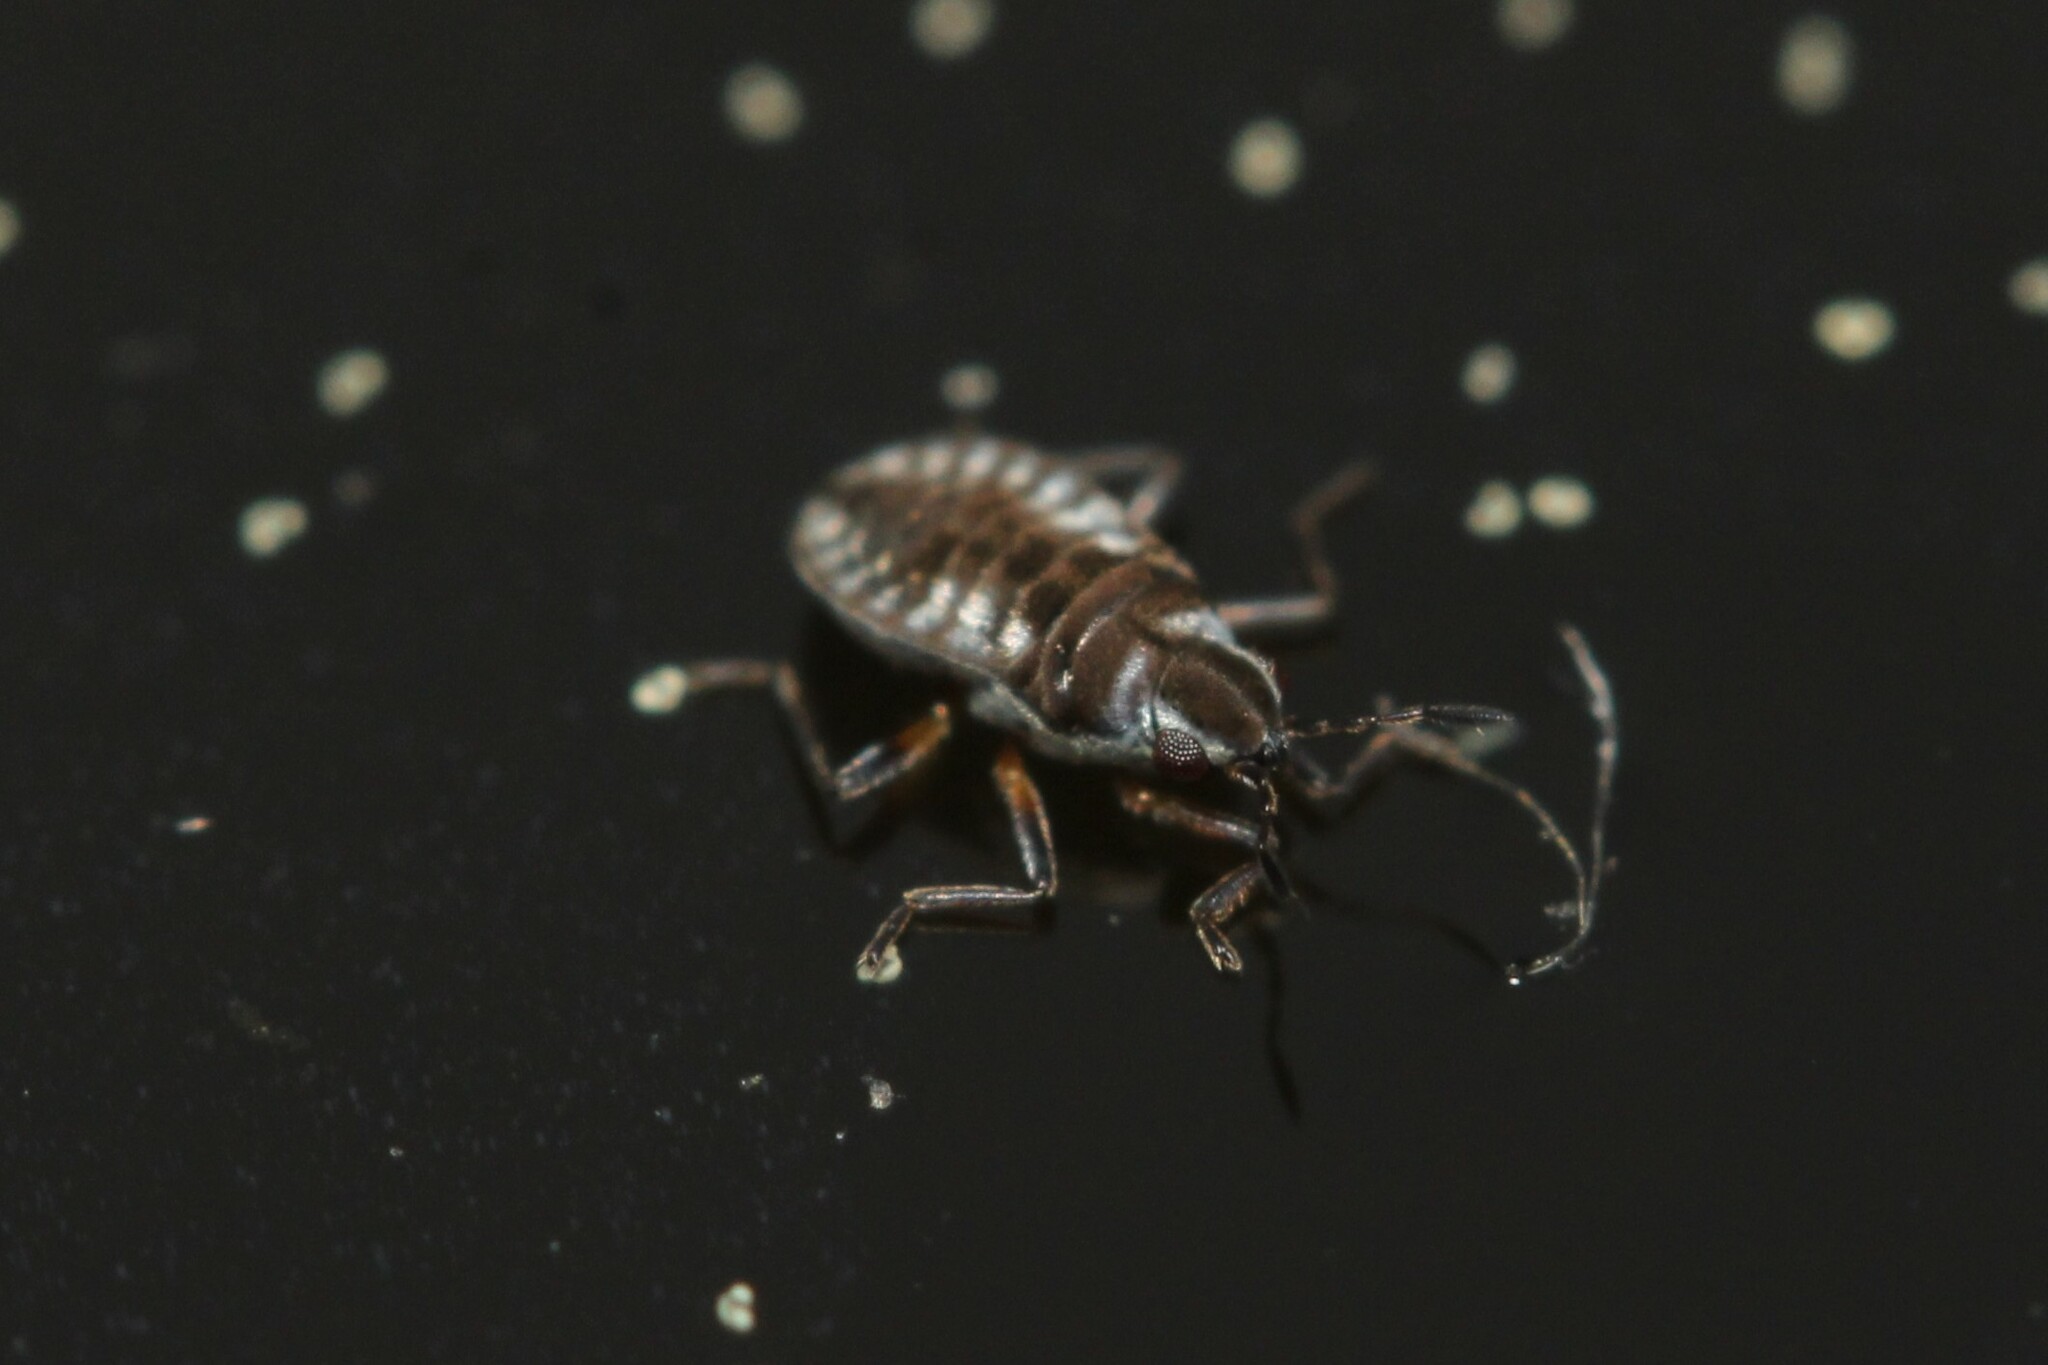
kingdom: Animalia
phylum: Arthropoda
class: Insecta
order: Hemiptera
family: Veliidae
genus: Microvelia
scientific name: Microvelia reticulata
